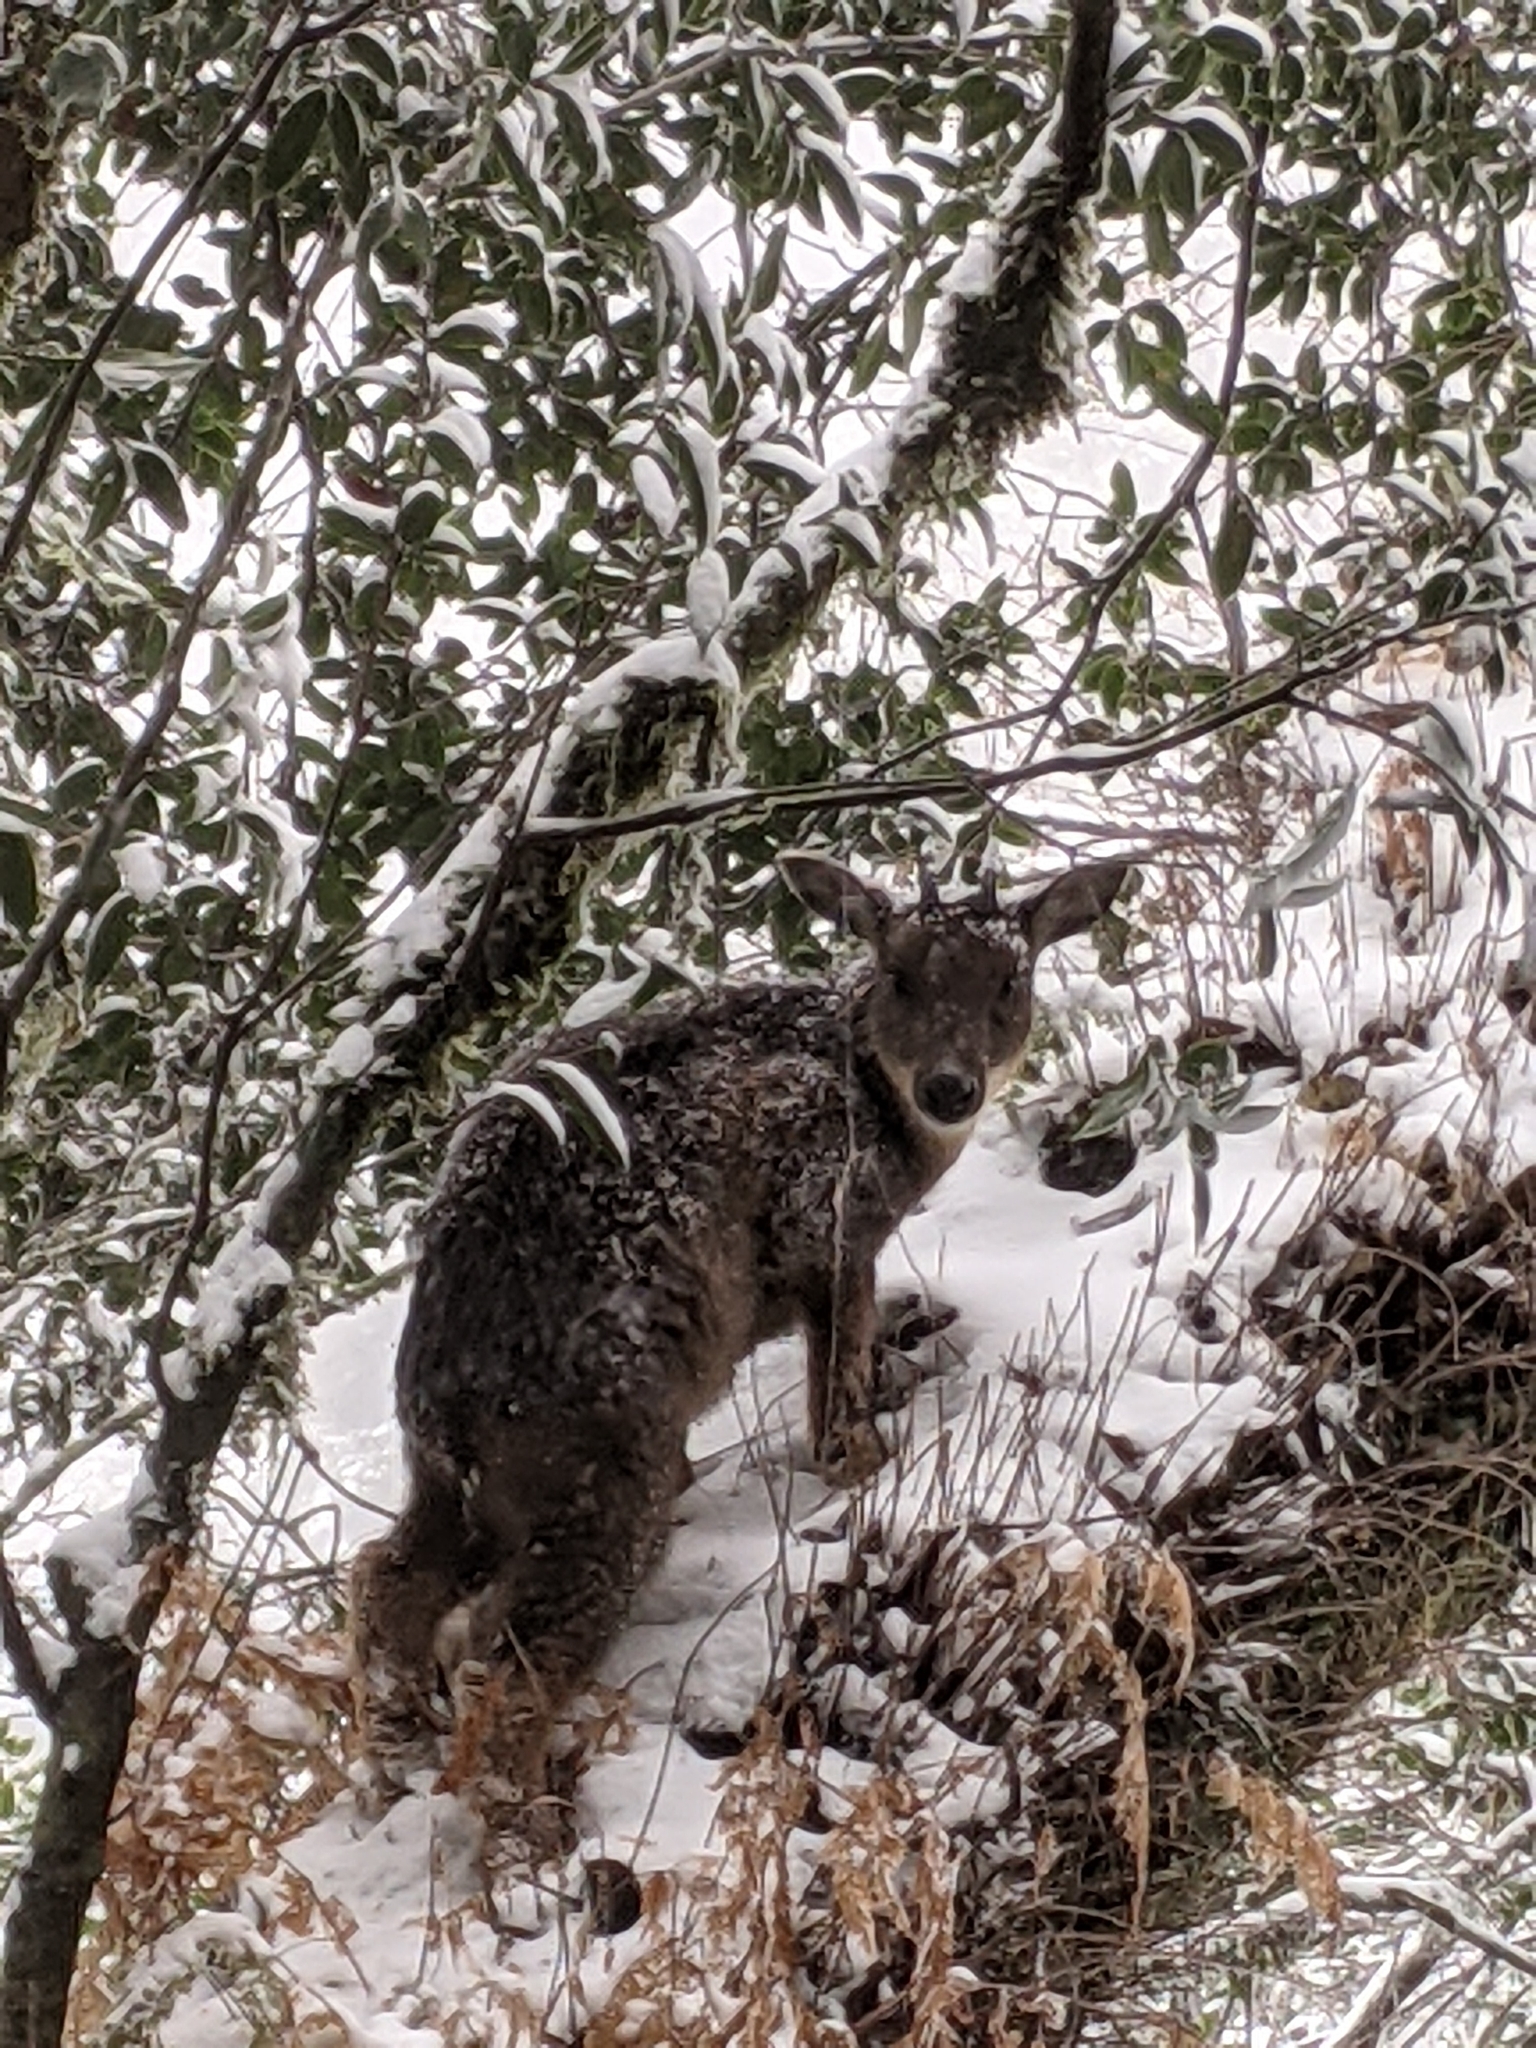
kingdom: Animalia
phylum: Chordata
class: Mammalia
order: Artiodactyla
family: Bovidae
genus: Capricornis
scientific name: Capricornis swinhoei
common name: Formosan serow
